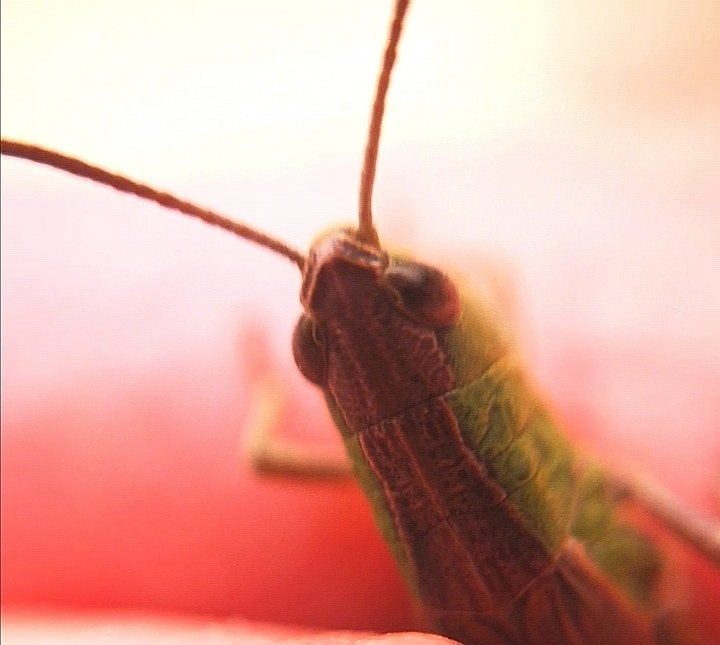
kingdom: Animalia
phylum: Arthropoda
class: Insecta
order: Orthoptera
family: Acrididae
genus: Pseudochorthippus
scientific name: Pseudochorthippus parallelus
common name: Meadow grasshopper
